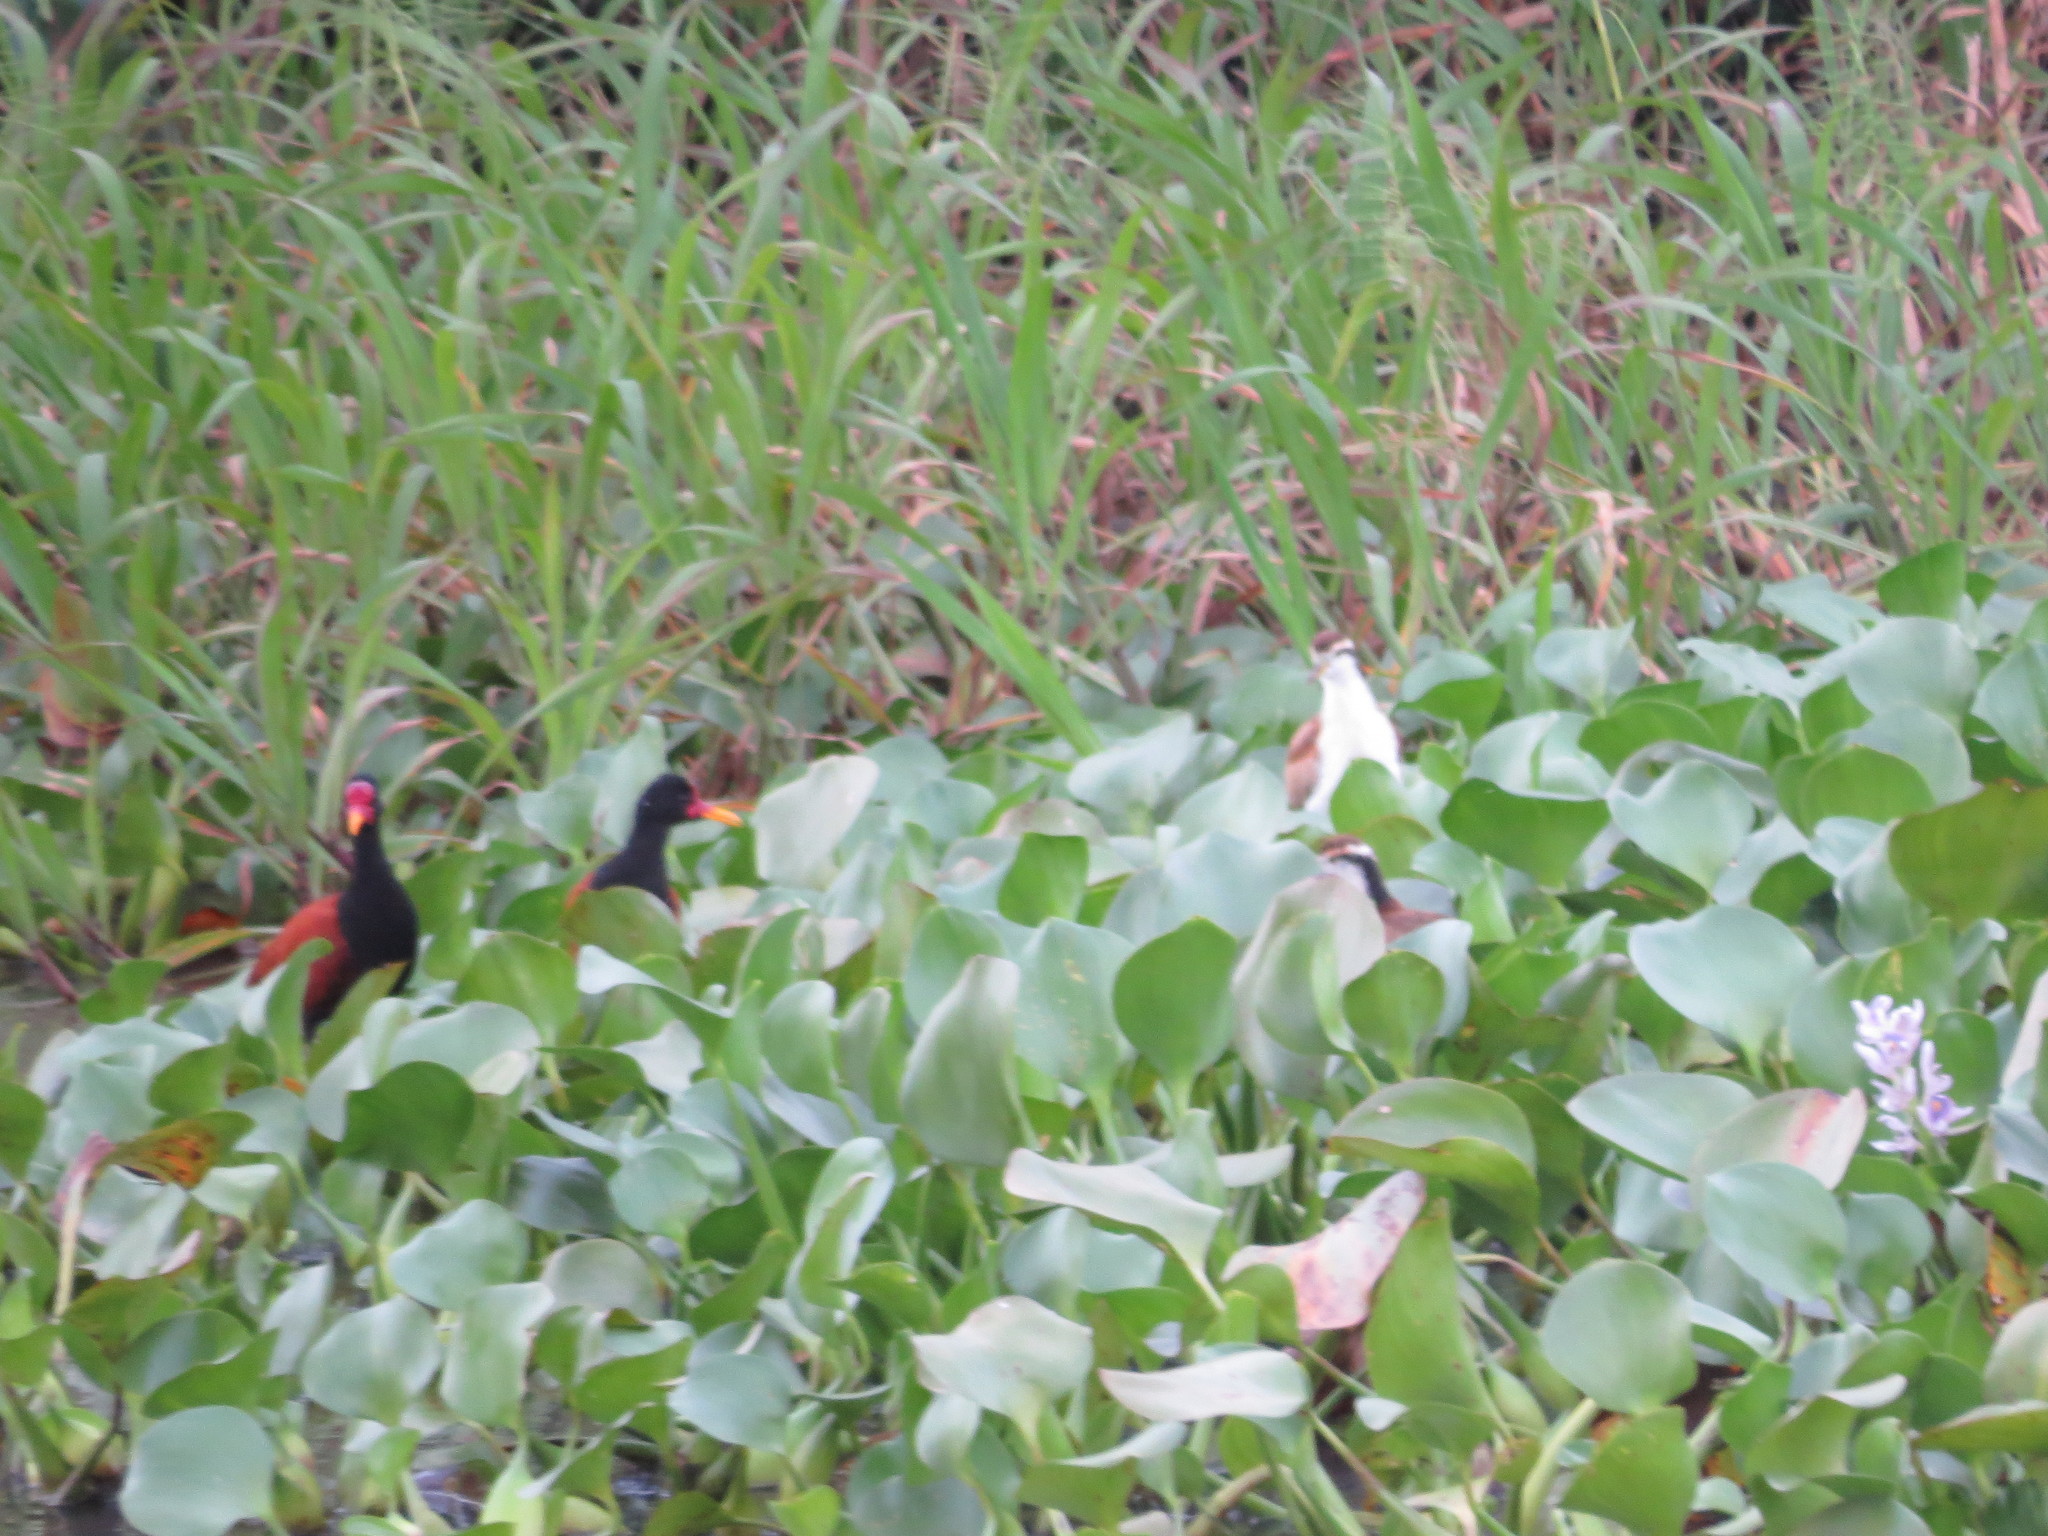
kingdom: Animalia
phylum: Chordata
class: Aves
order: Charadriiformes
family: Jacanidae
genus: Jacana
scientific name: Jacana jacana
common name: Wattled jacana
